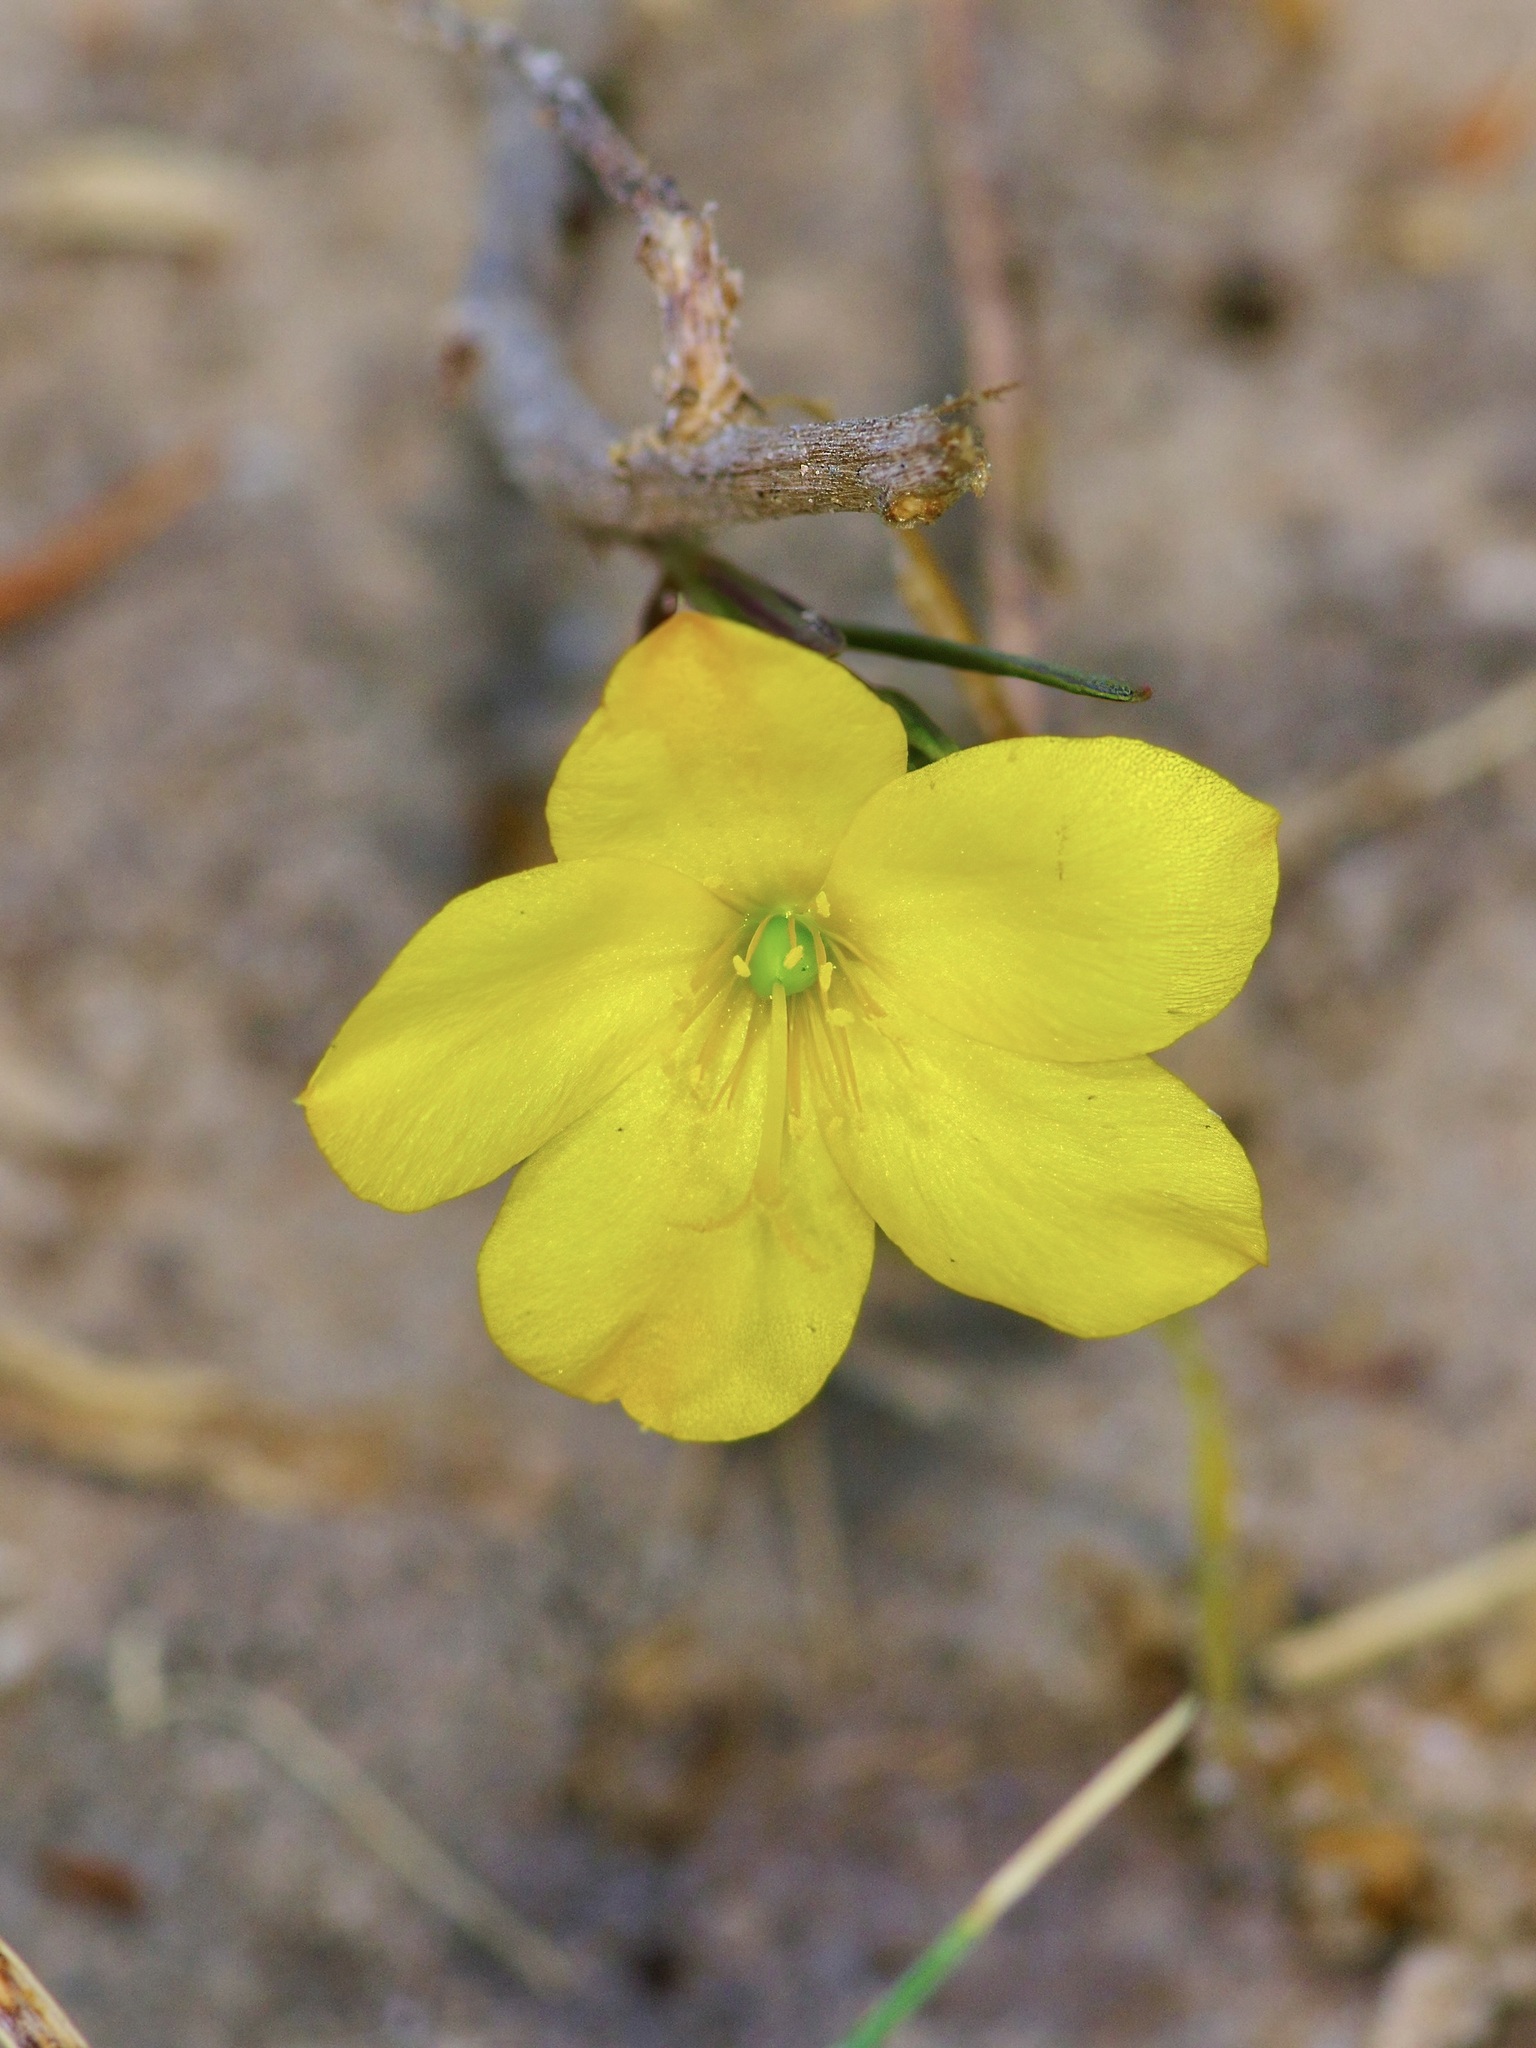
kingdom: Plantae
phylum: Tracheophyta
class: Magnoliopsida
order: Caryophyllales
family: Talinaceae
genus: Talinum
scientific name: Talinum polygaloides
